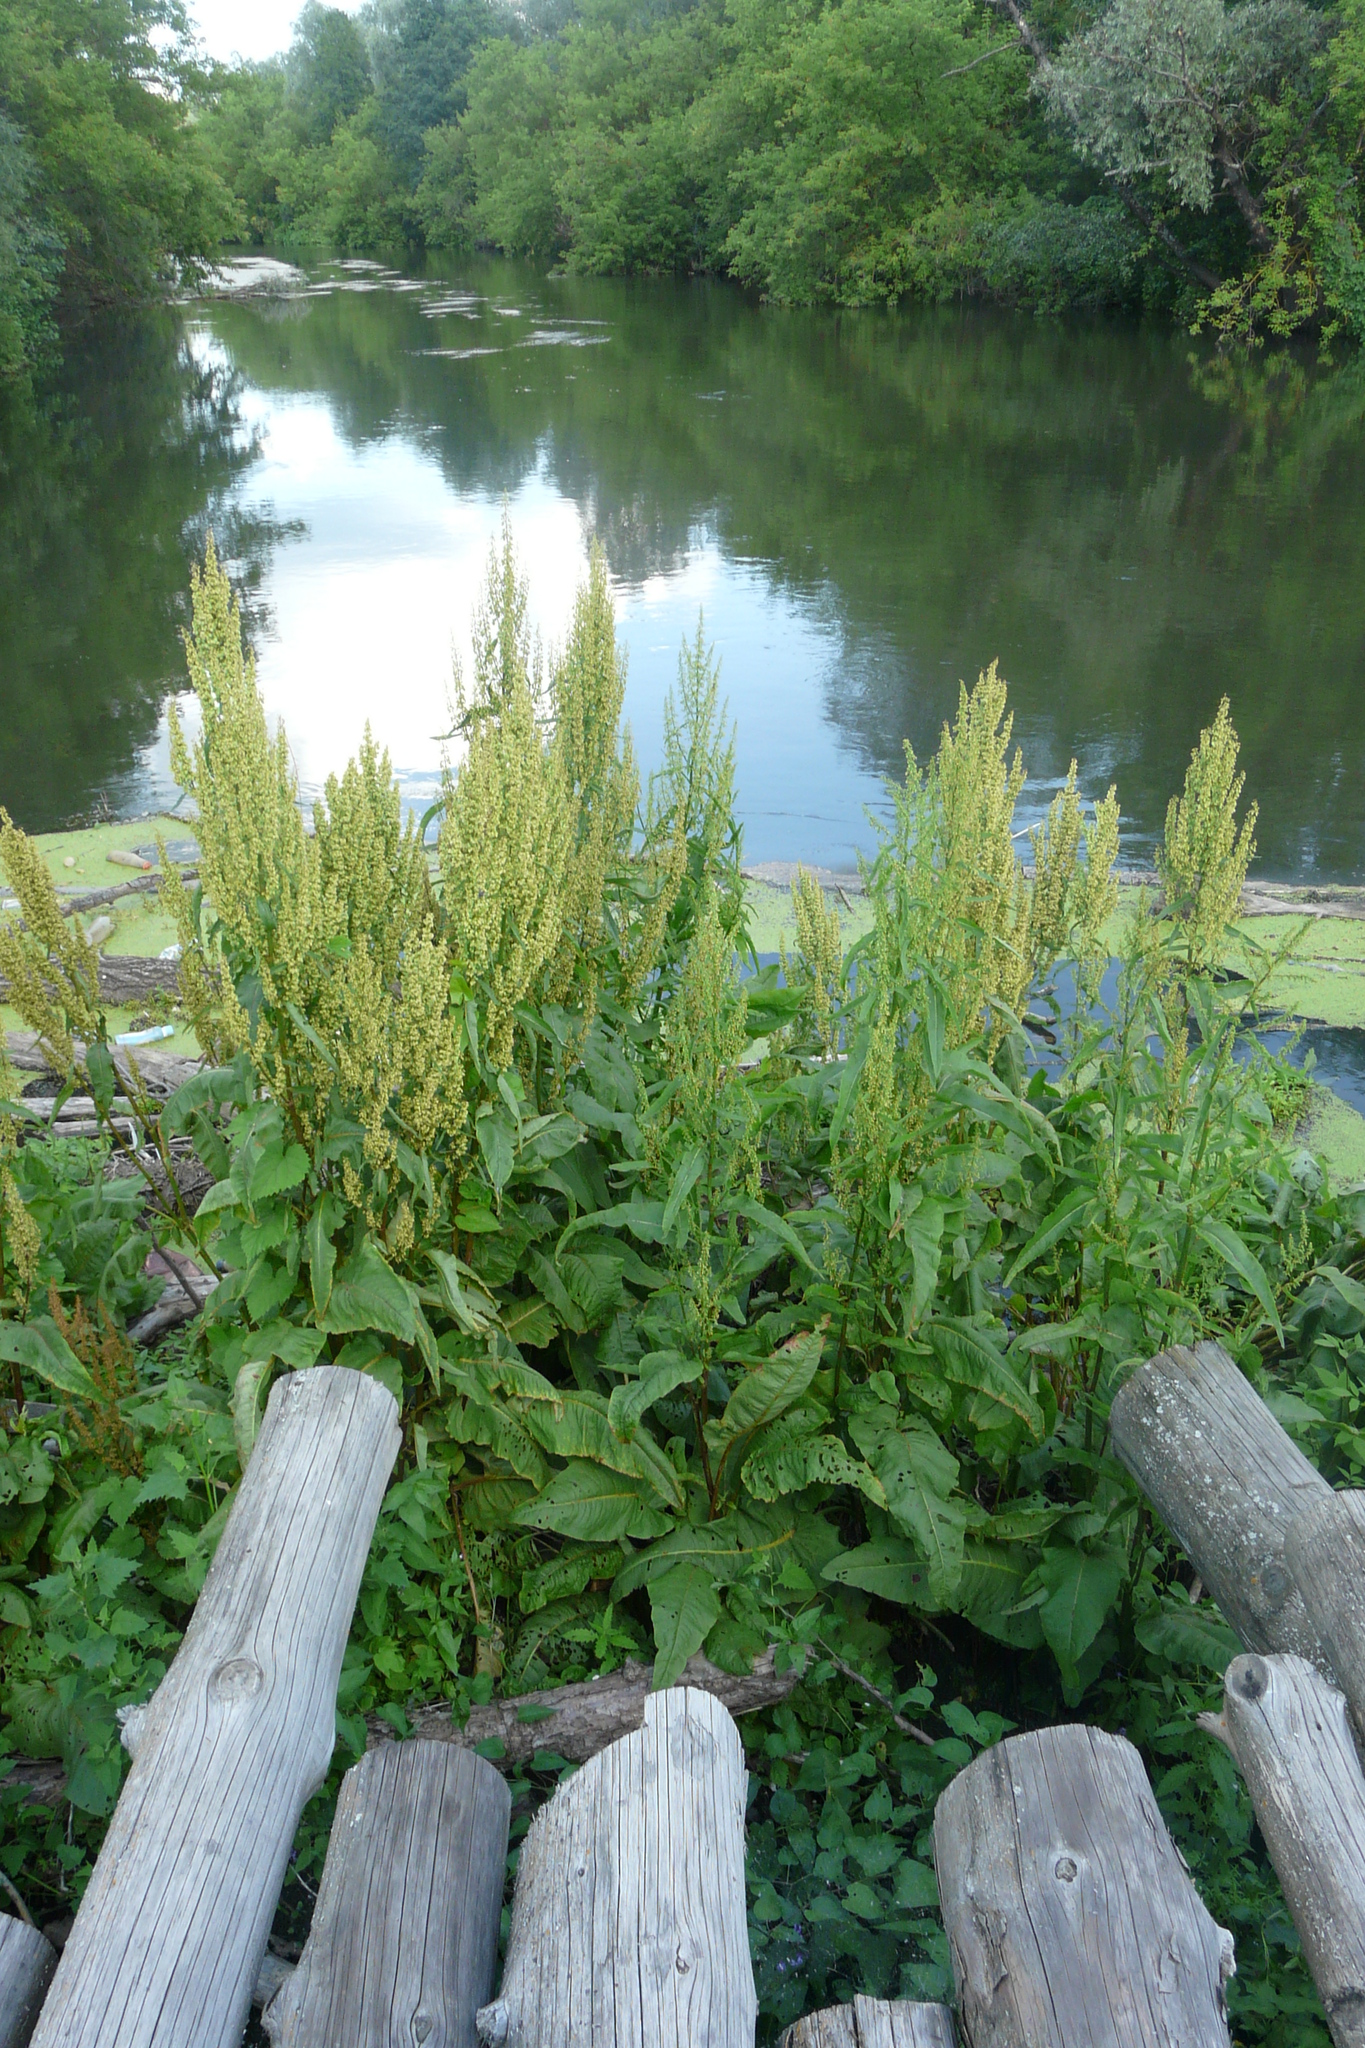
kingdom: Plantae
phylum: Tracheophyta
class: Magnoliopsida
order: Caryophyllales
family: Polygonaceae
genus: Rumex
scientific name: Rumex aquaticus
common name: Scottish dock
